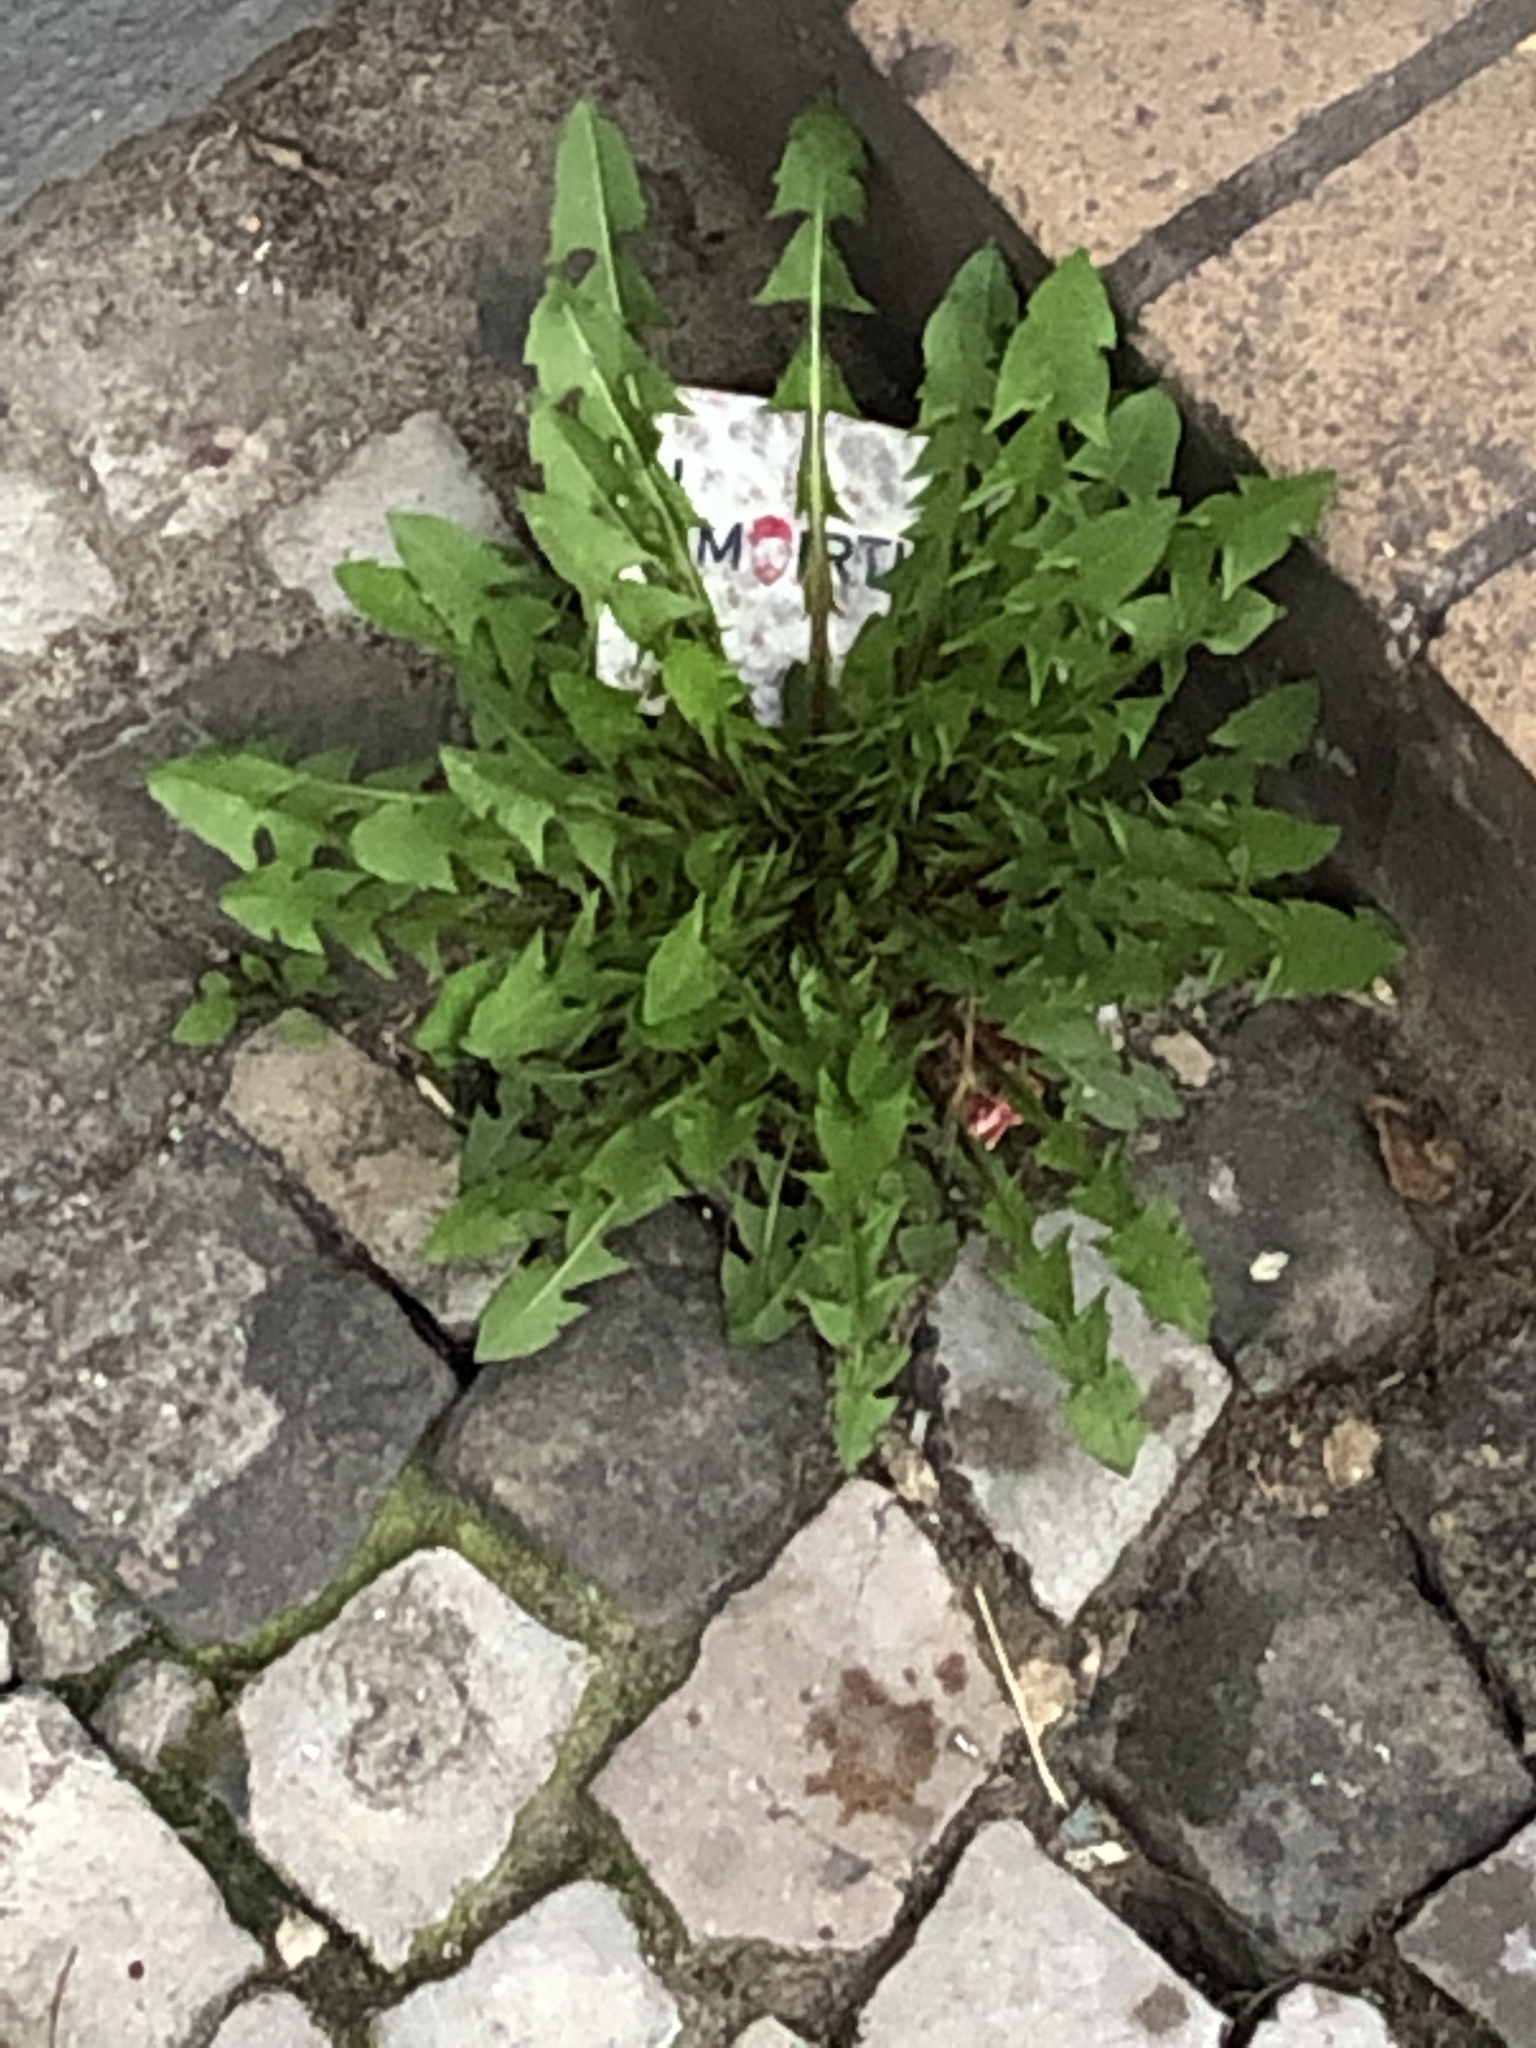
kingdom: Plantae
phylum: Tracheophyta
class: Magnoliopsida
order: Asterales
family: Asteraceae
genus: Taraxacum
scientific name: Taraxacum officinale
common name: Common dandelion
